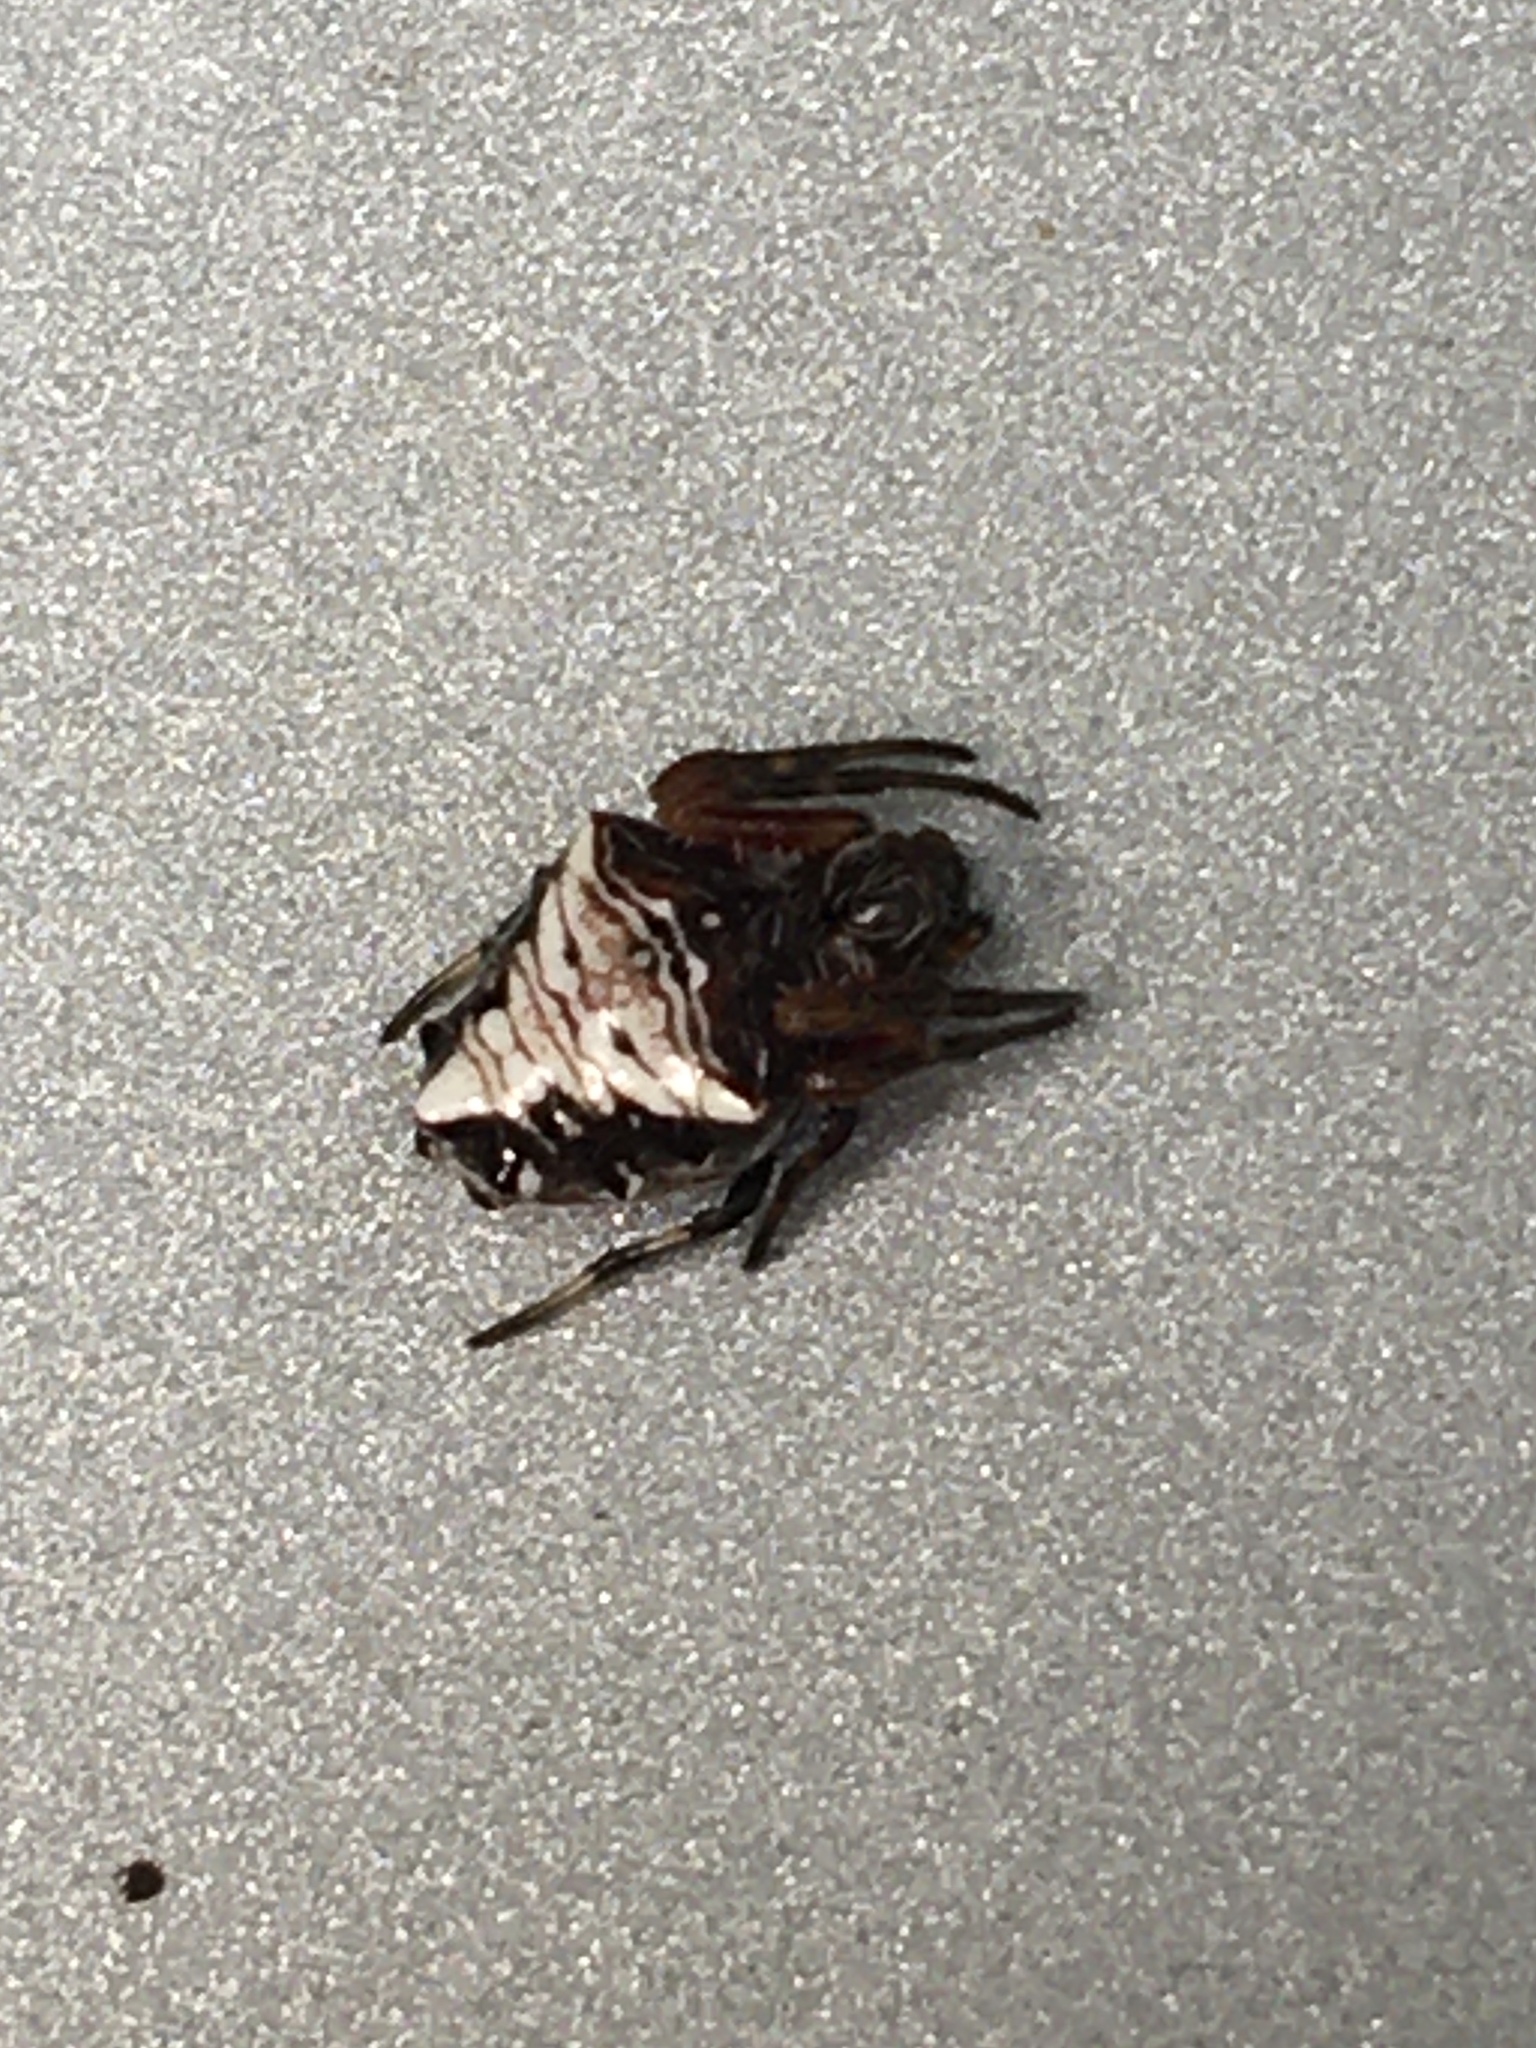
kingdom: Animalia
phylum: Arthropoda
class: Arachnida
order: Araneae
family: Araneidae
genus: Verrucosa
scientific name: Verrucosa meridionalis
